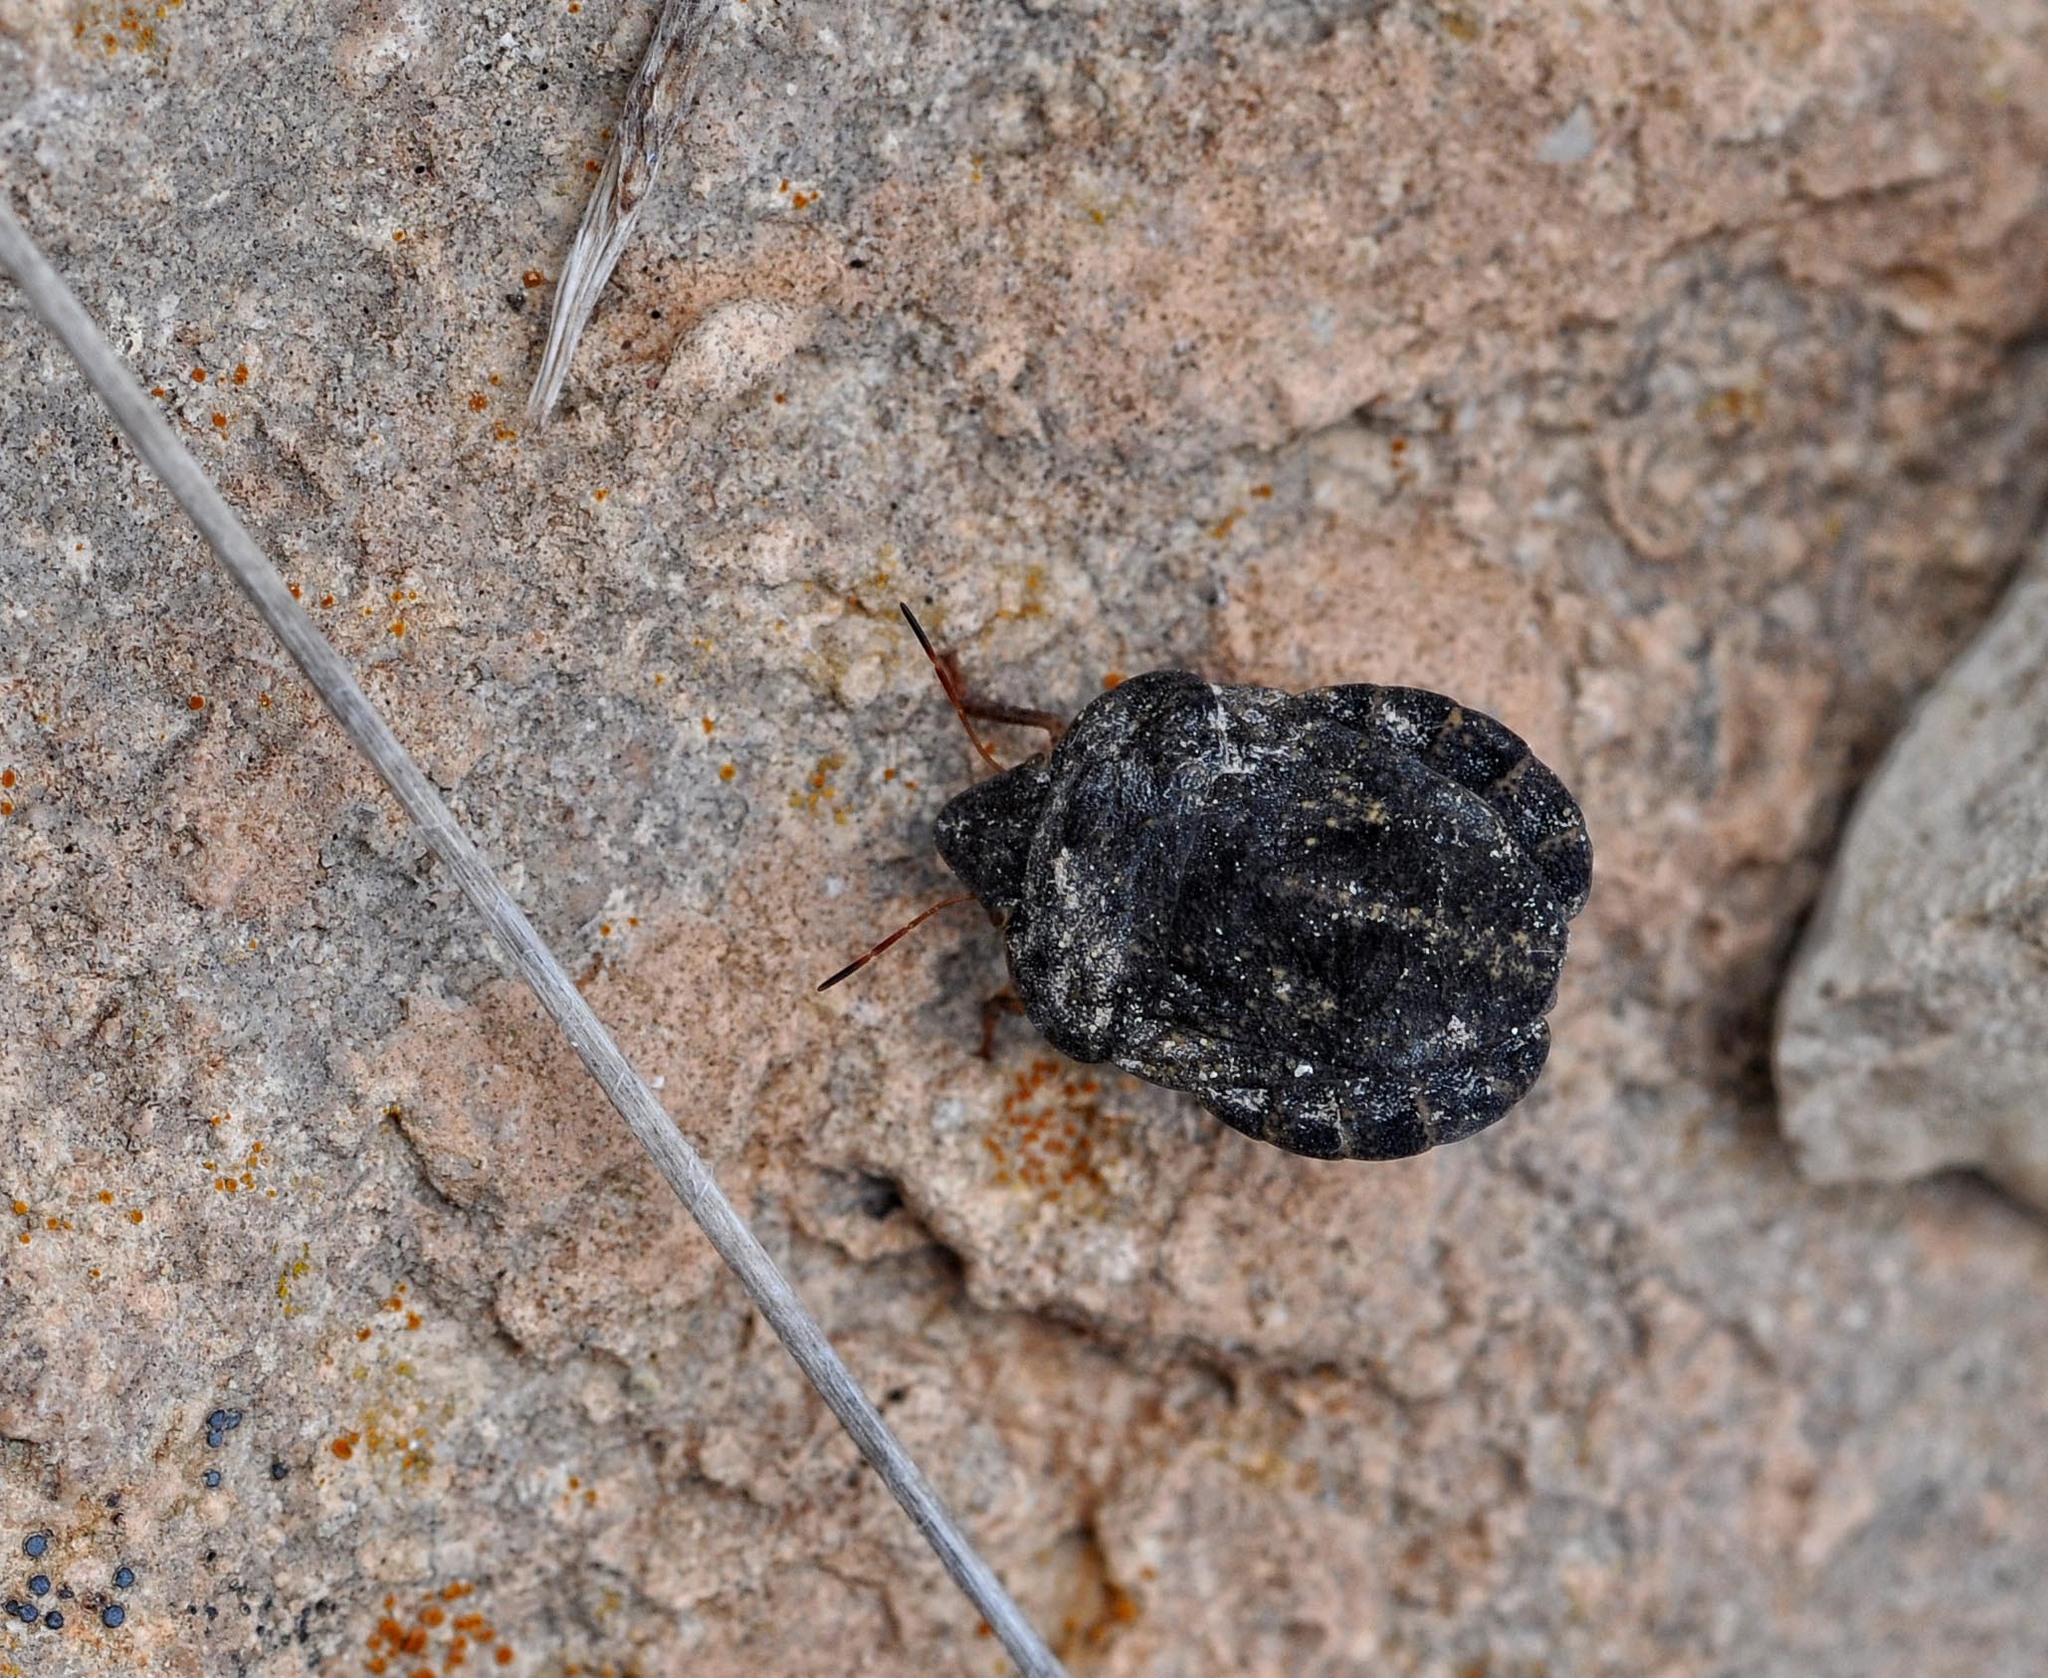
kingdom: Animalia
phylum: Arthropoda
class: Insecta
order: Hemiptera
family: Scutelleridae
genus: Eurygaster
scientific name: Eurygaster austriaca
